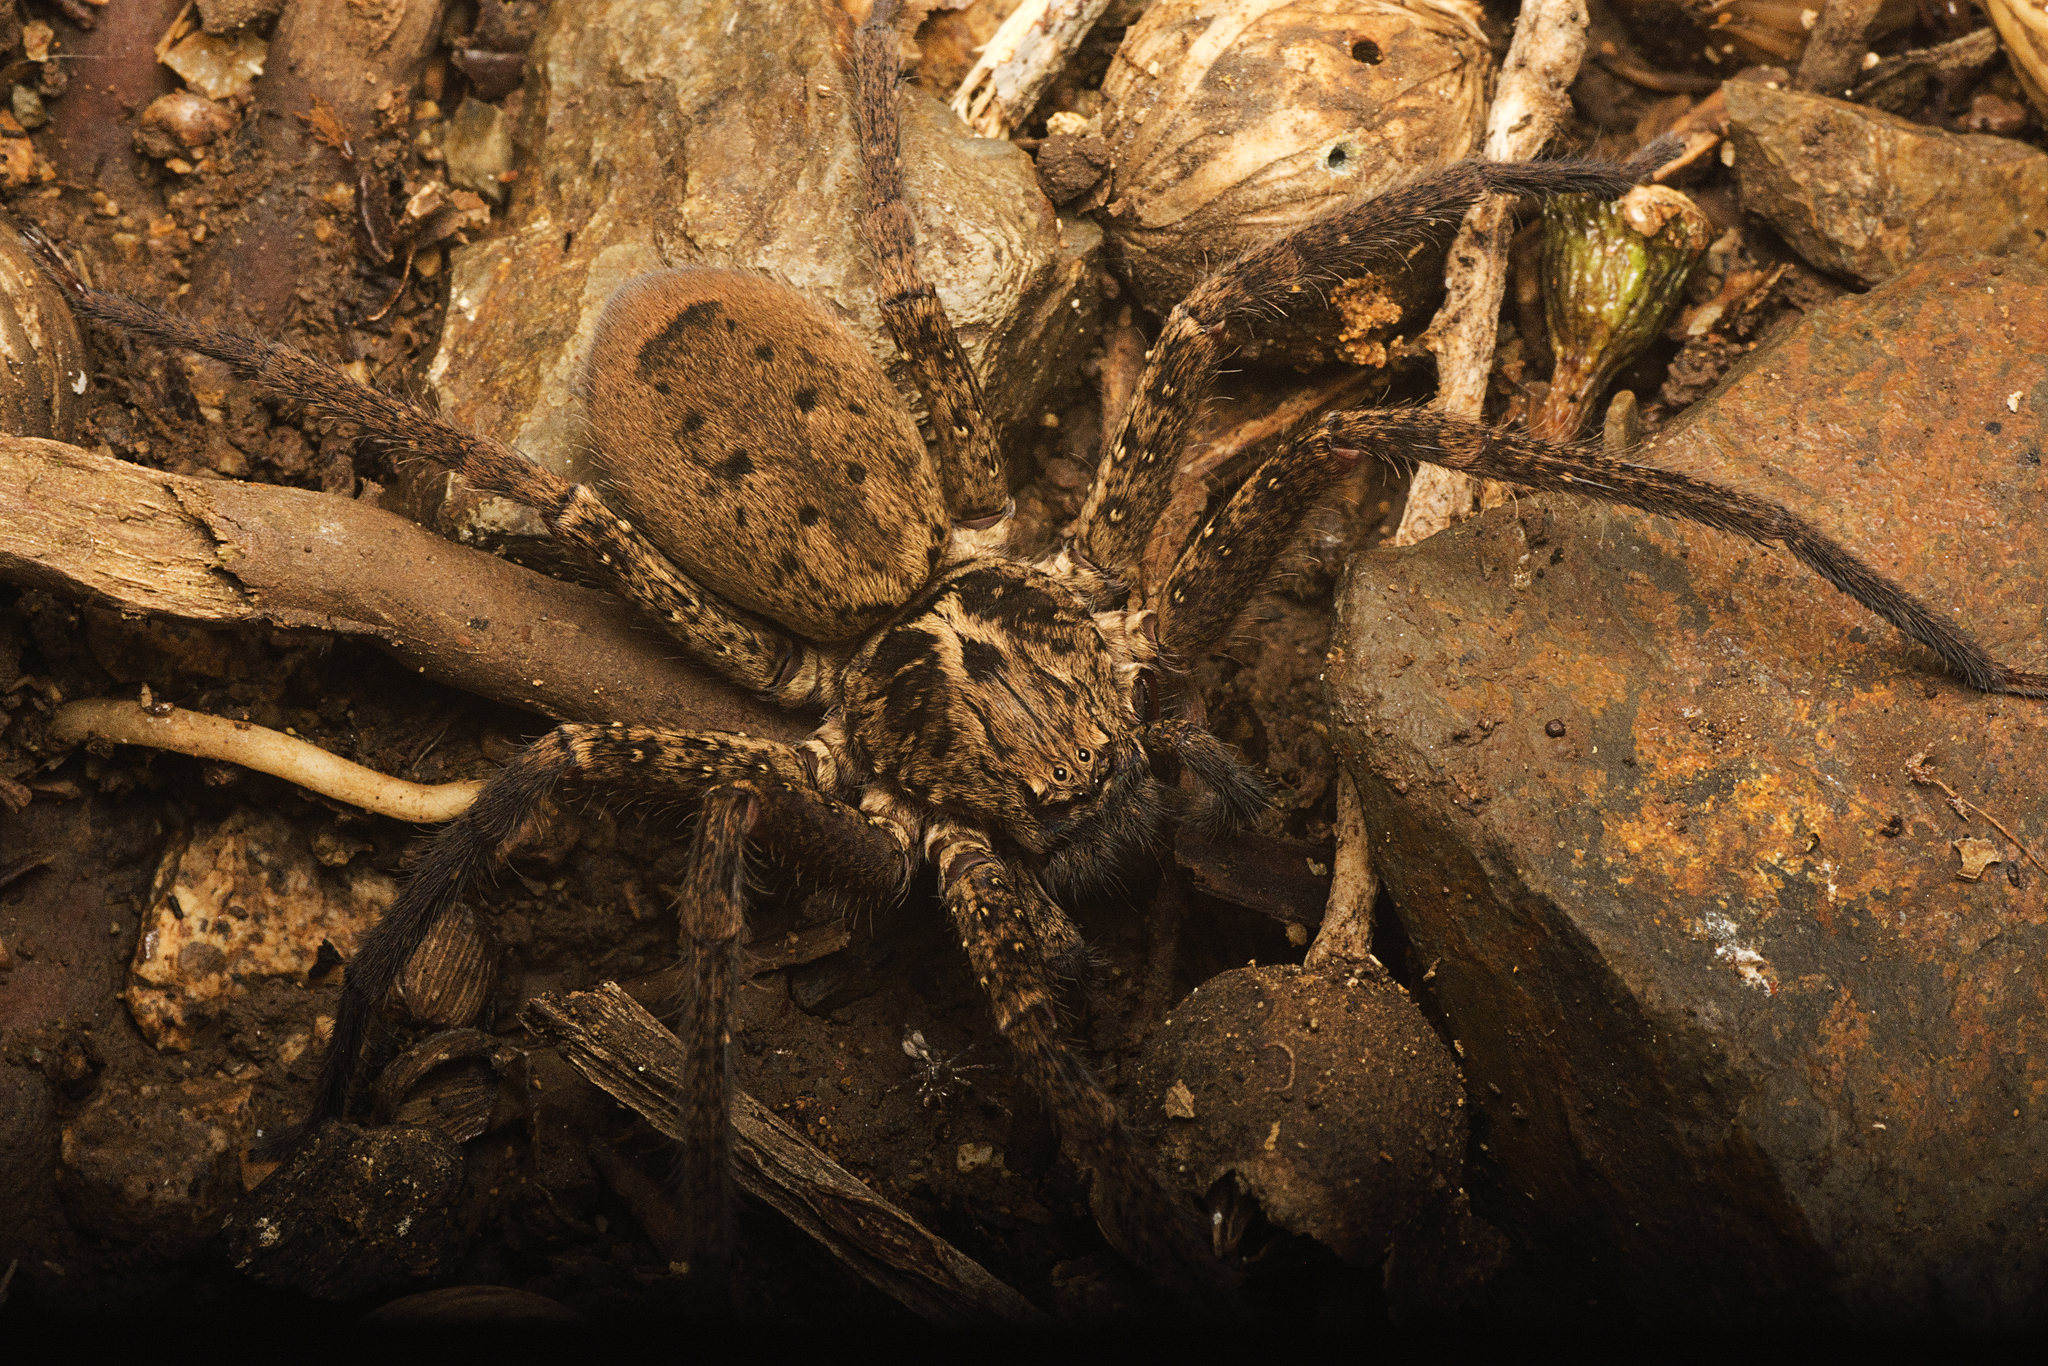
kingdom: Animalia
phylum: Arthropoda
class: Arachnida
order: Araneae
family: Sparassidae
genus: Heteropoda
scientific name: Heteropoda hillerae
